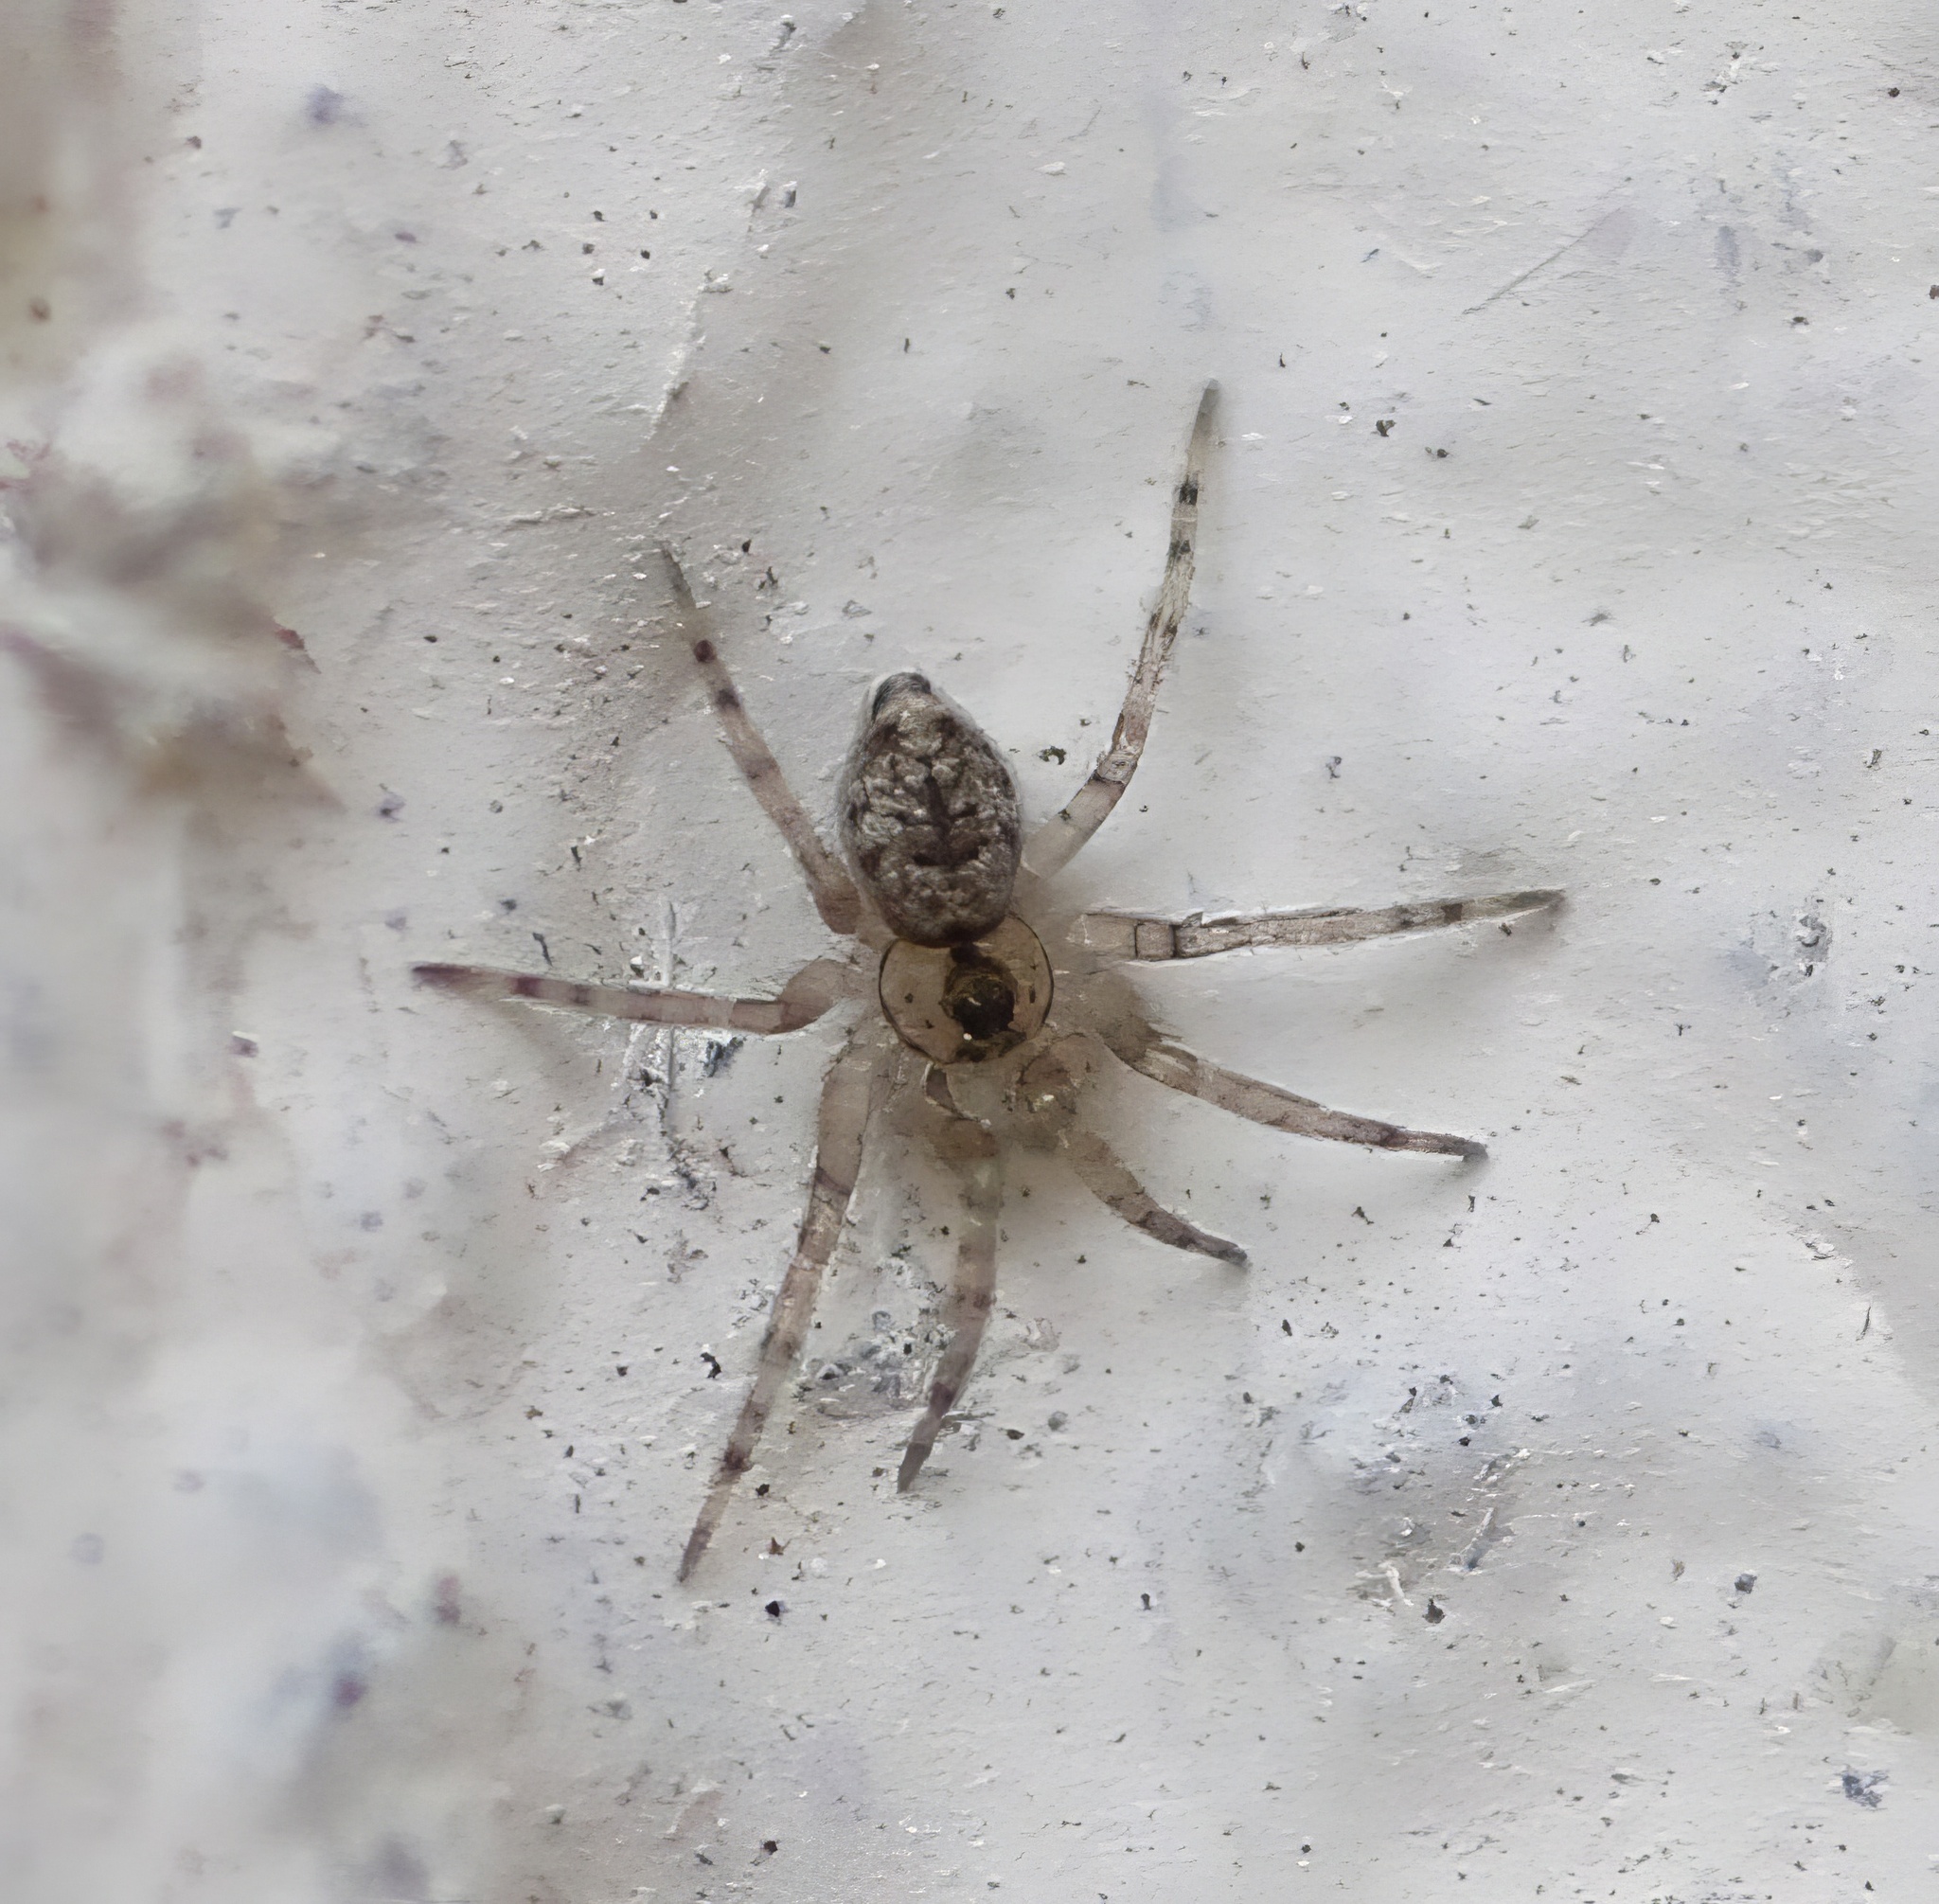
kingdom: Animalia
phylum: Arthropoda
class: Arachnida
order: Araneae
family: Oecobiidae
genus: Oecobius
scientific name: Oecobius navus
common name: Flatmesh weaver
